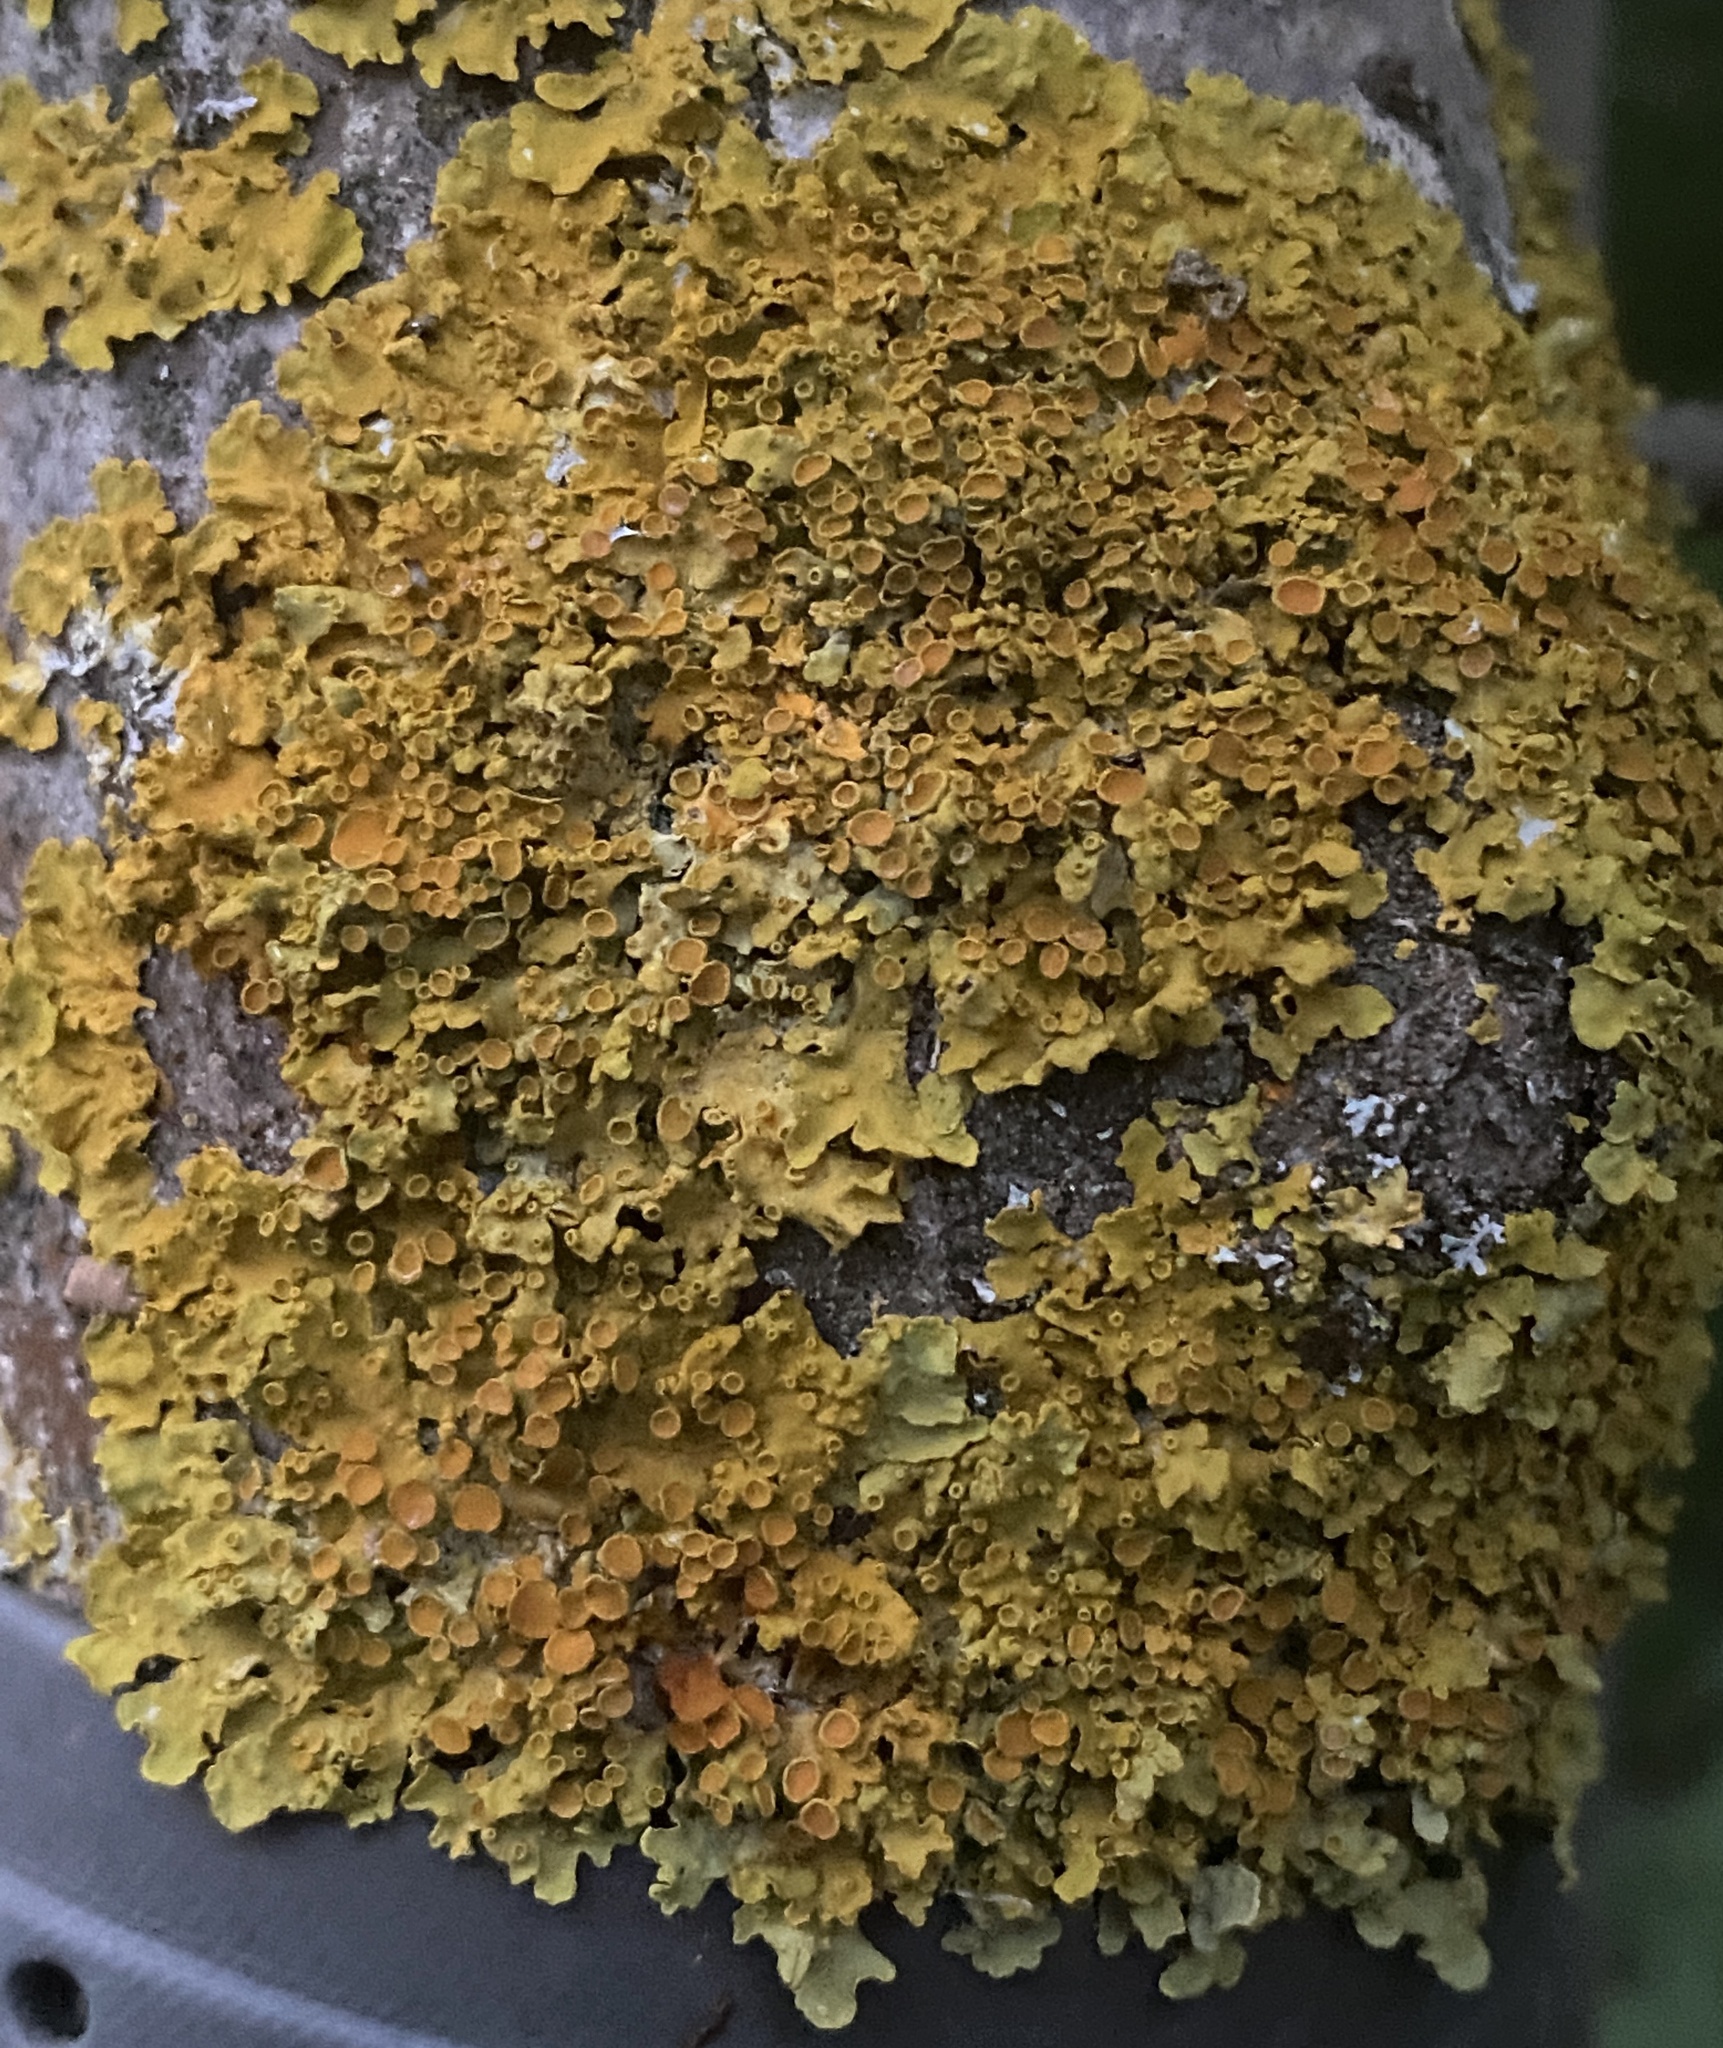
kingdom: Fungi
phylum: Ascomycota
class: Lecanoromycetes
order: Teloschistales
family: Teloschistaceae
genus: Xanthoria
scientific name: Xanthoria parietina
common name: Common orange lichen
